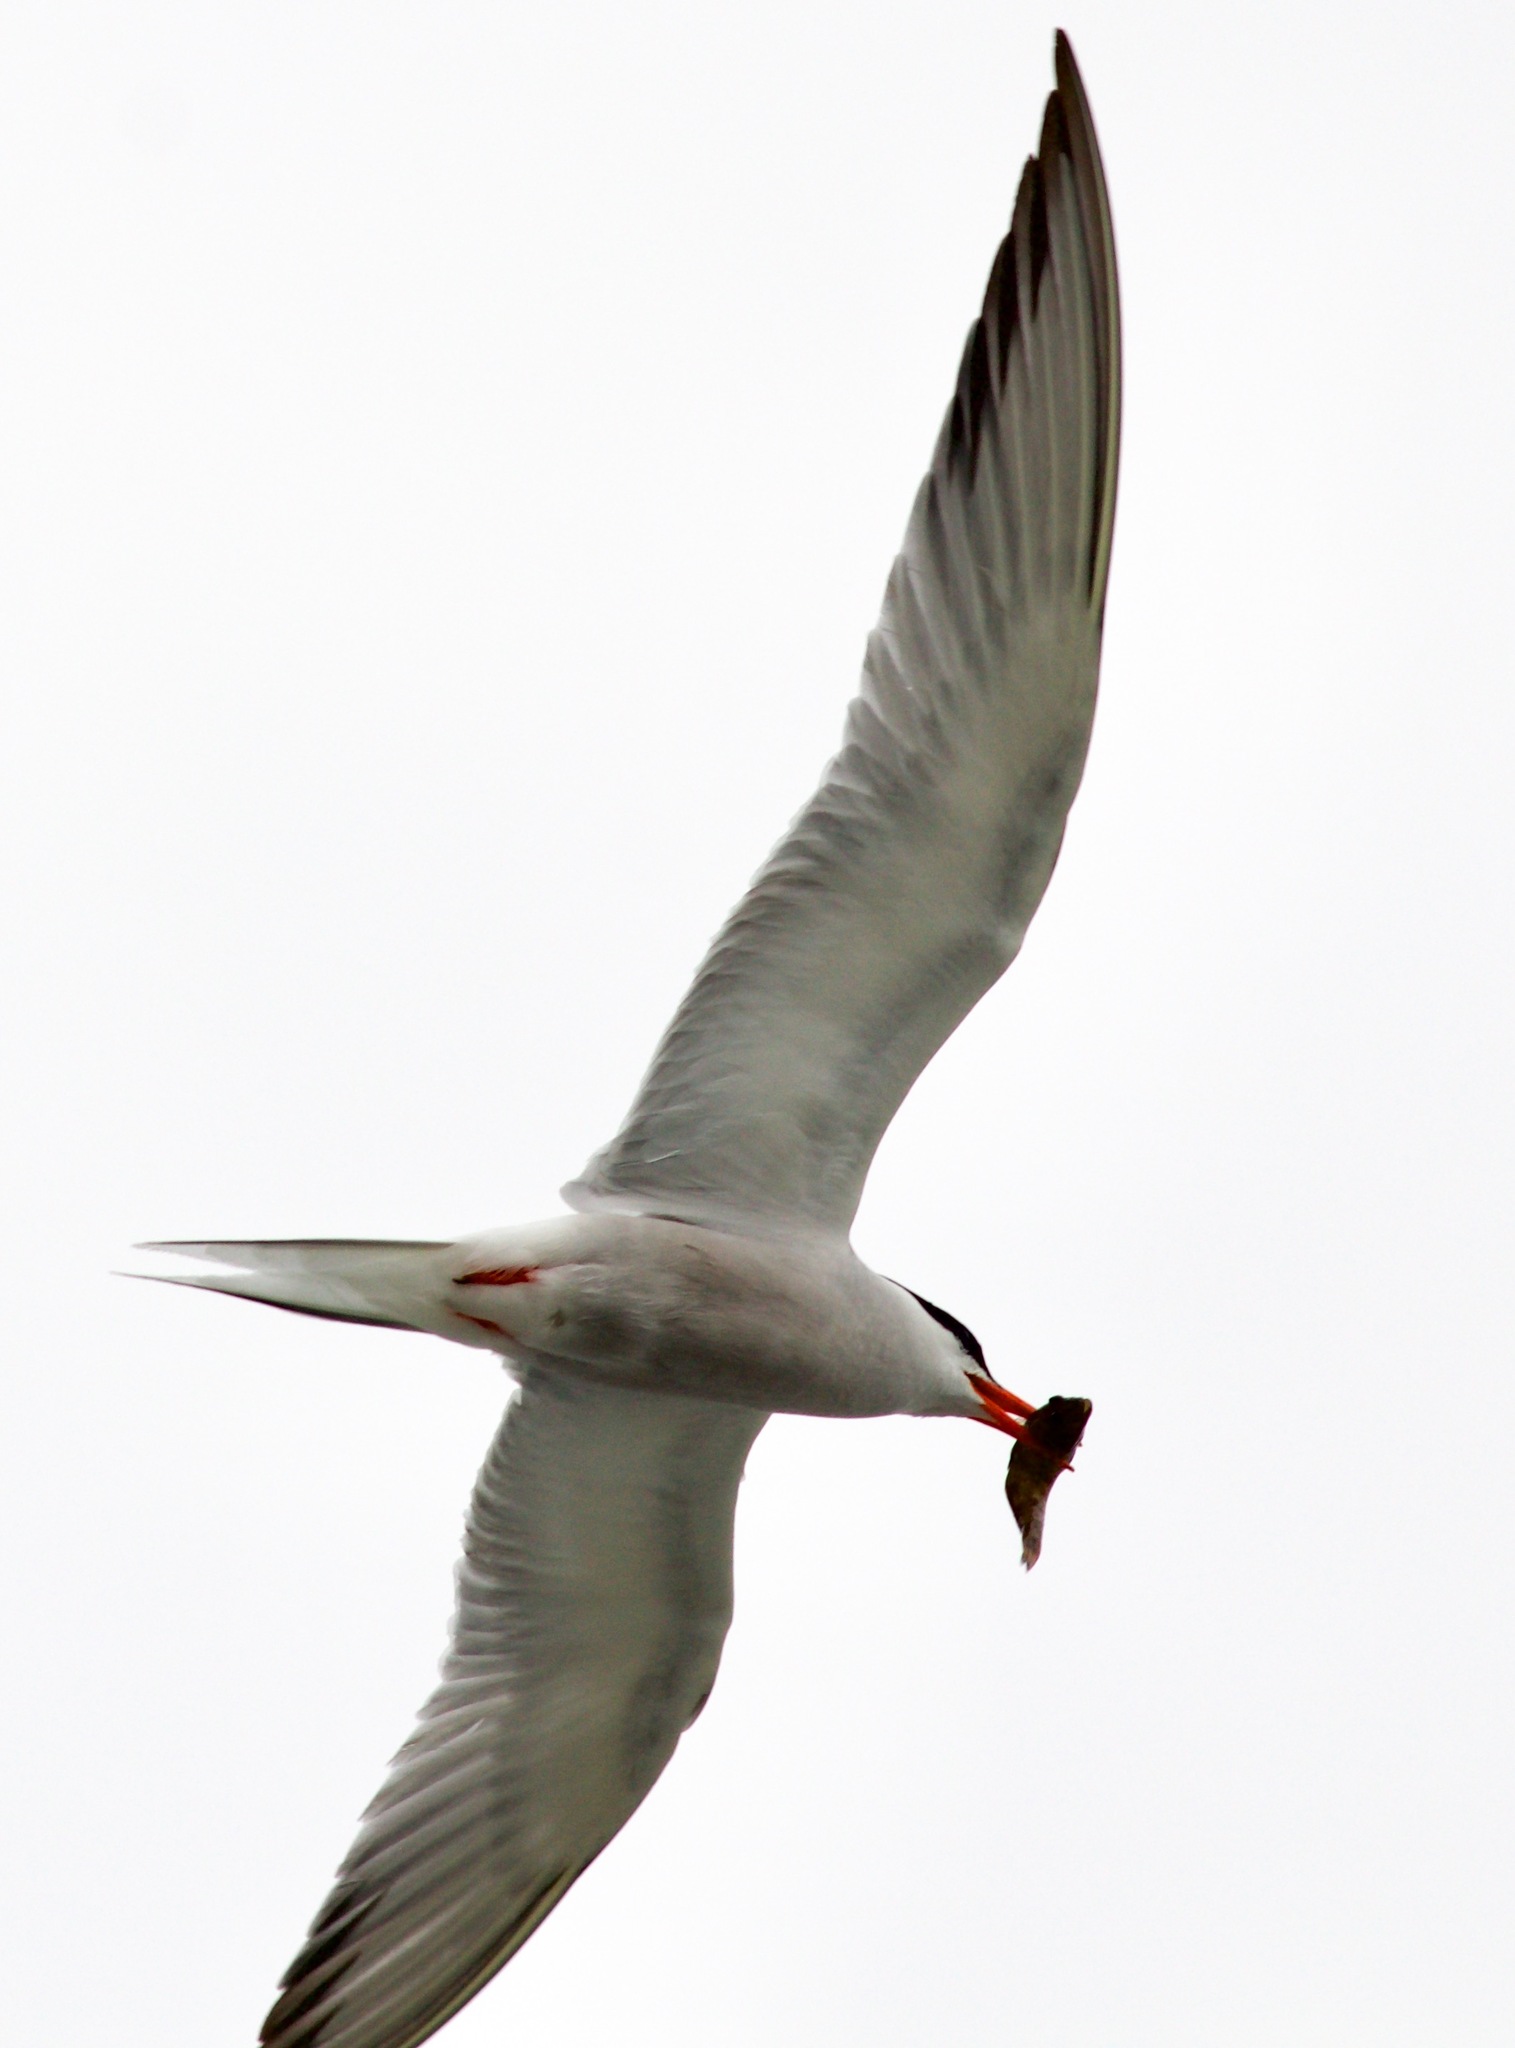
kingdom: Animalia
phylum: Chordata
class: Aves
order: Charadriiformes
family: Laridae
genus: Sterna
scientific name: Sterna hirundo
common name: Common tern
